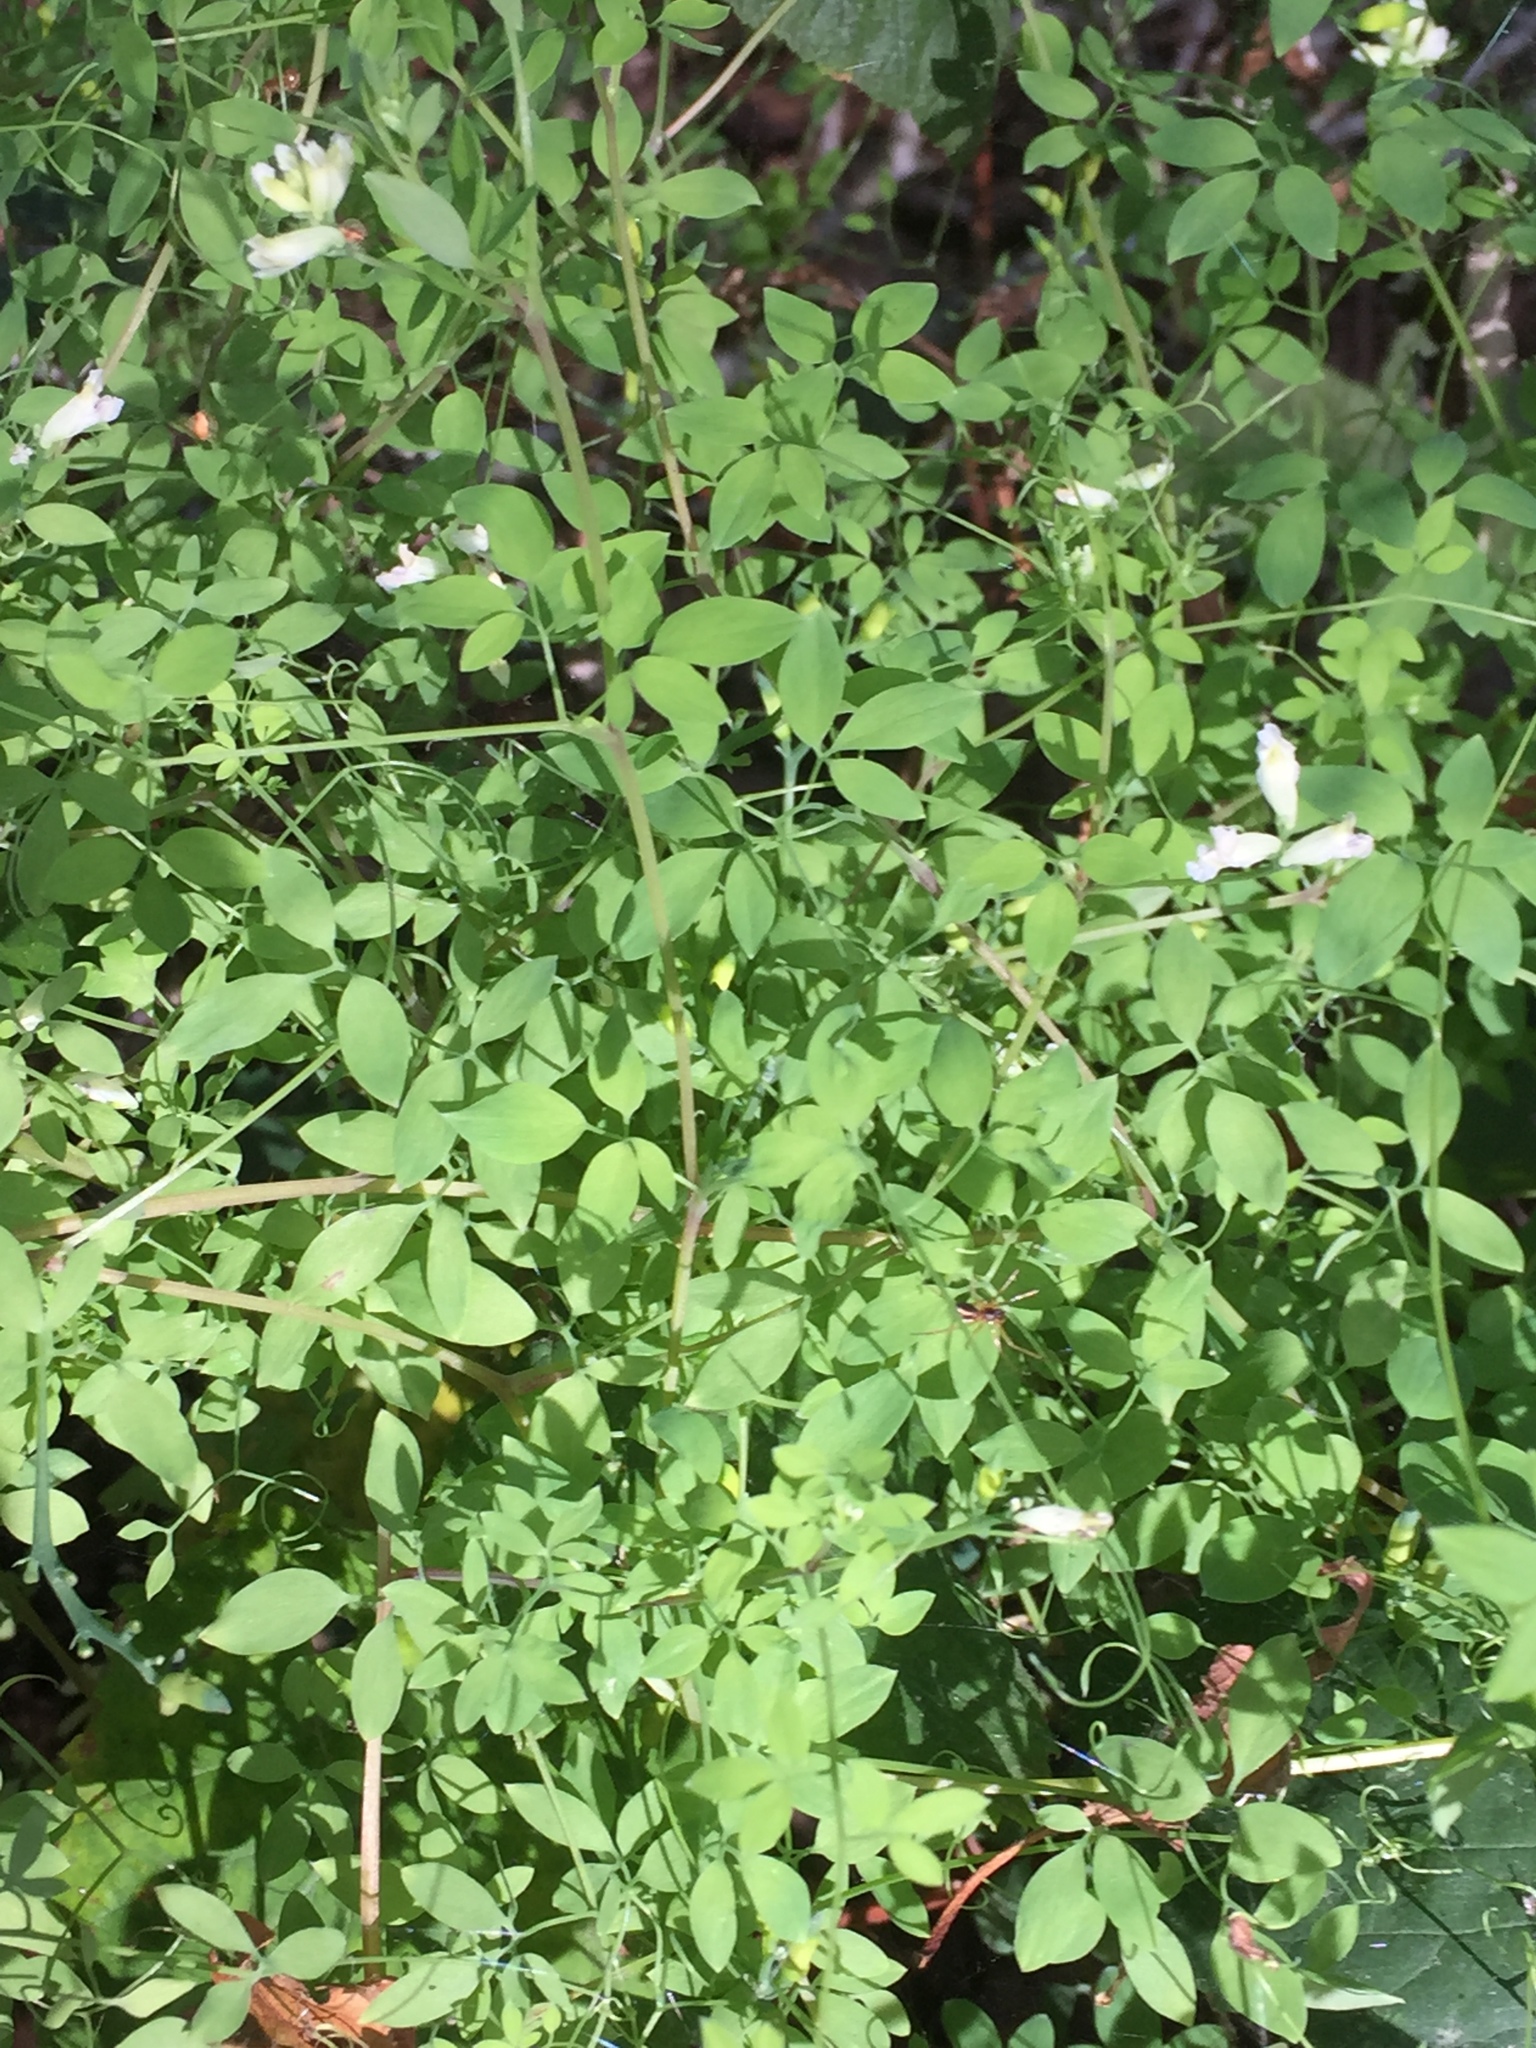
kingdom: Plantae
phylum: Tracheophyta
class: Magnoliopsida
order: Ranunculales
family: Papaveraceae
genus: Ceratocapnos
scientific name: Ceratocapnos claviculata
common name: Climbing corydalis
